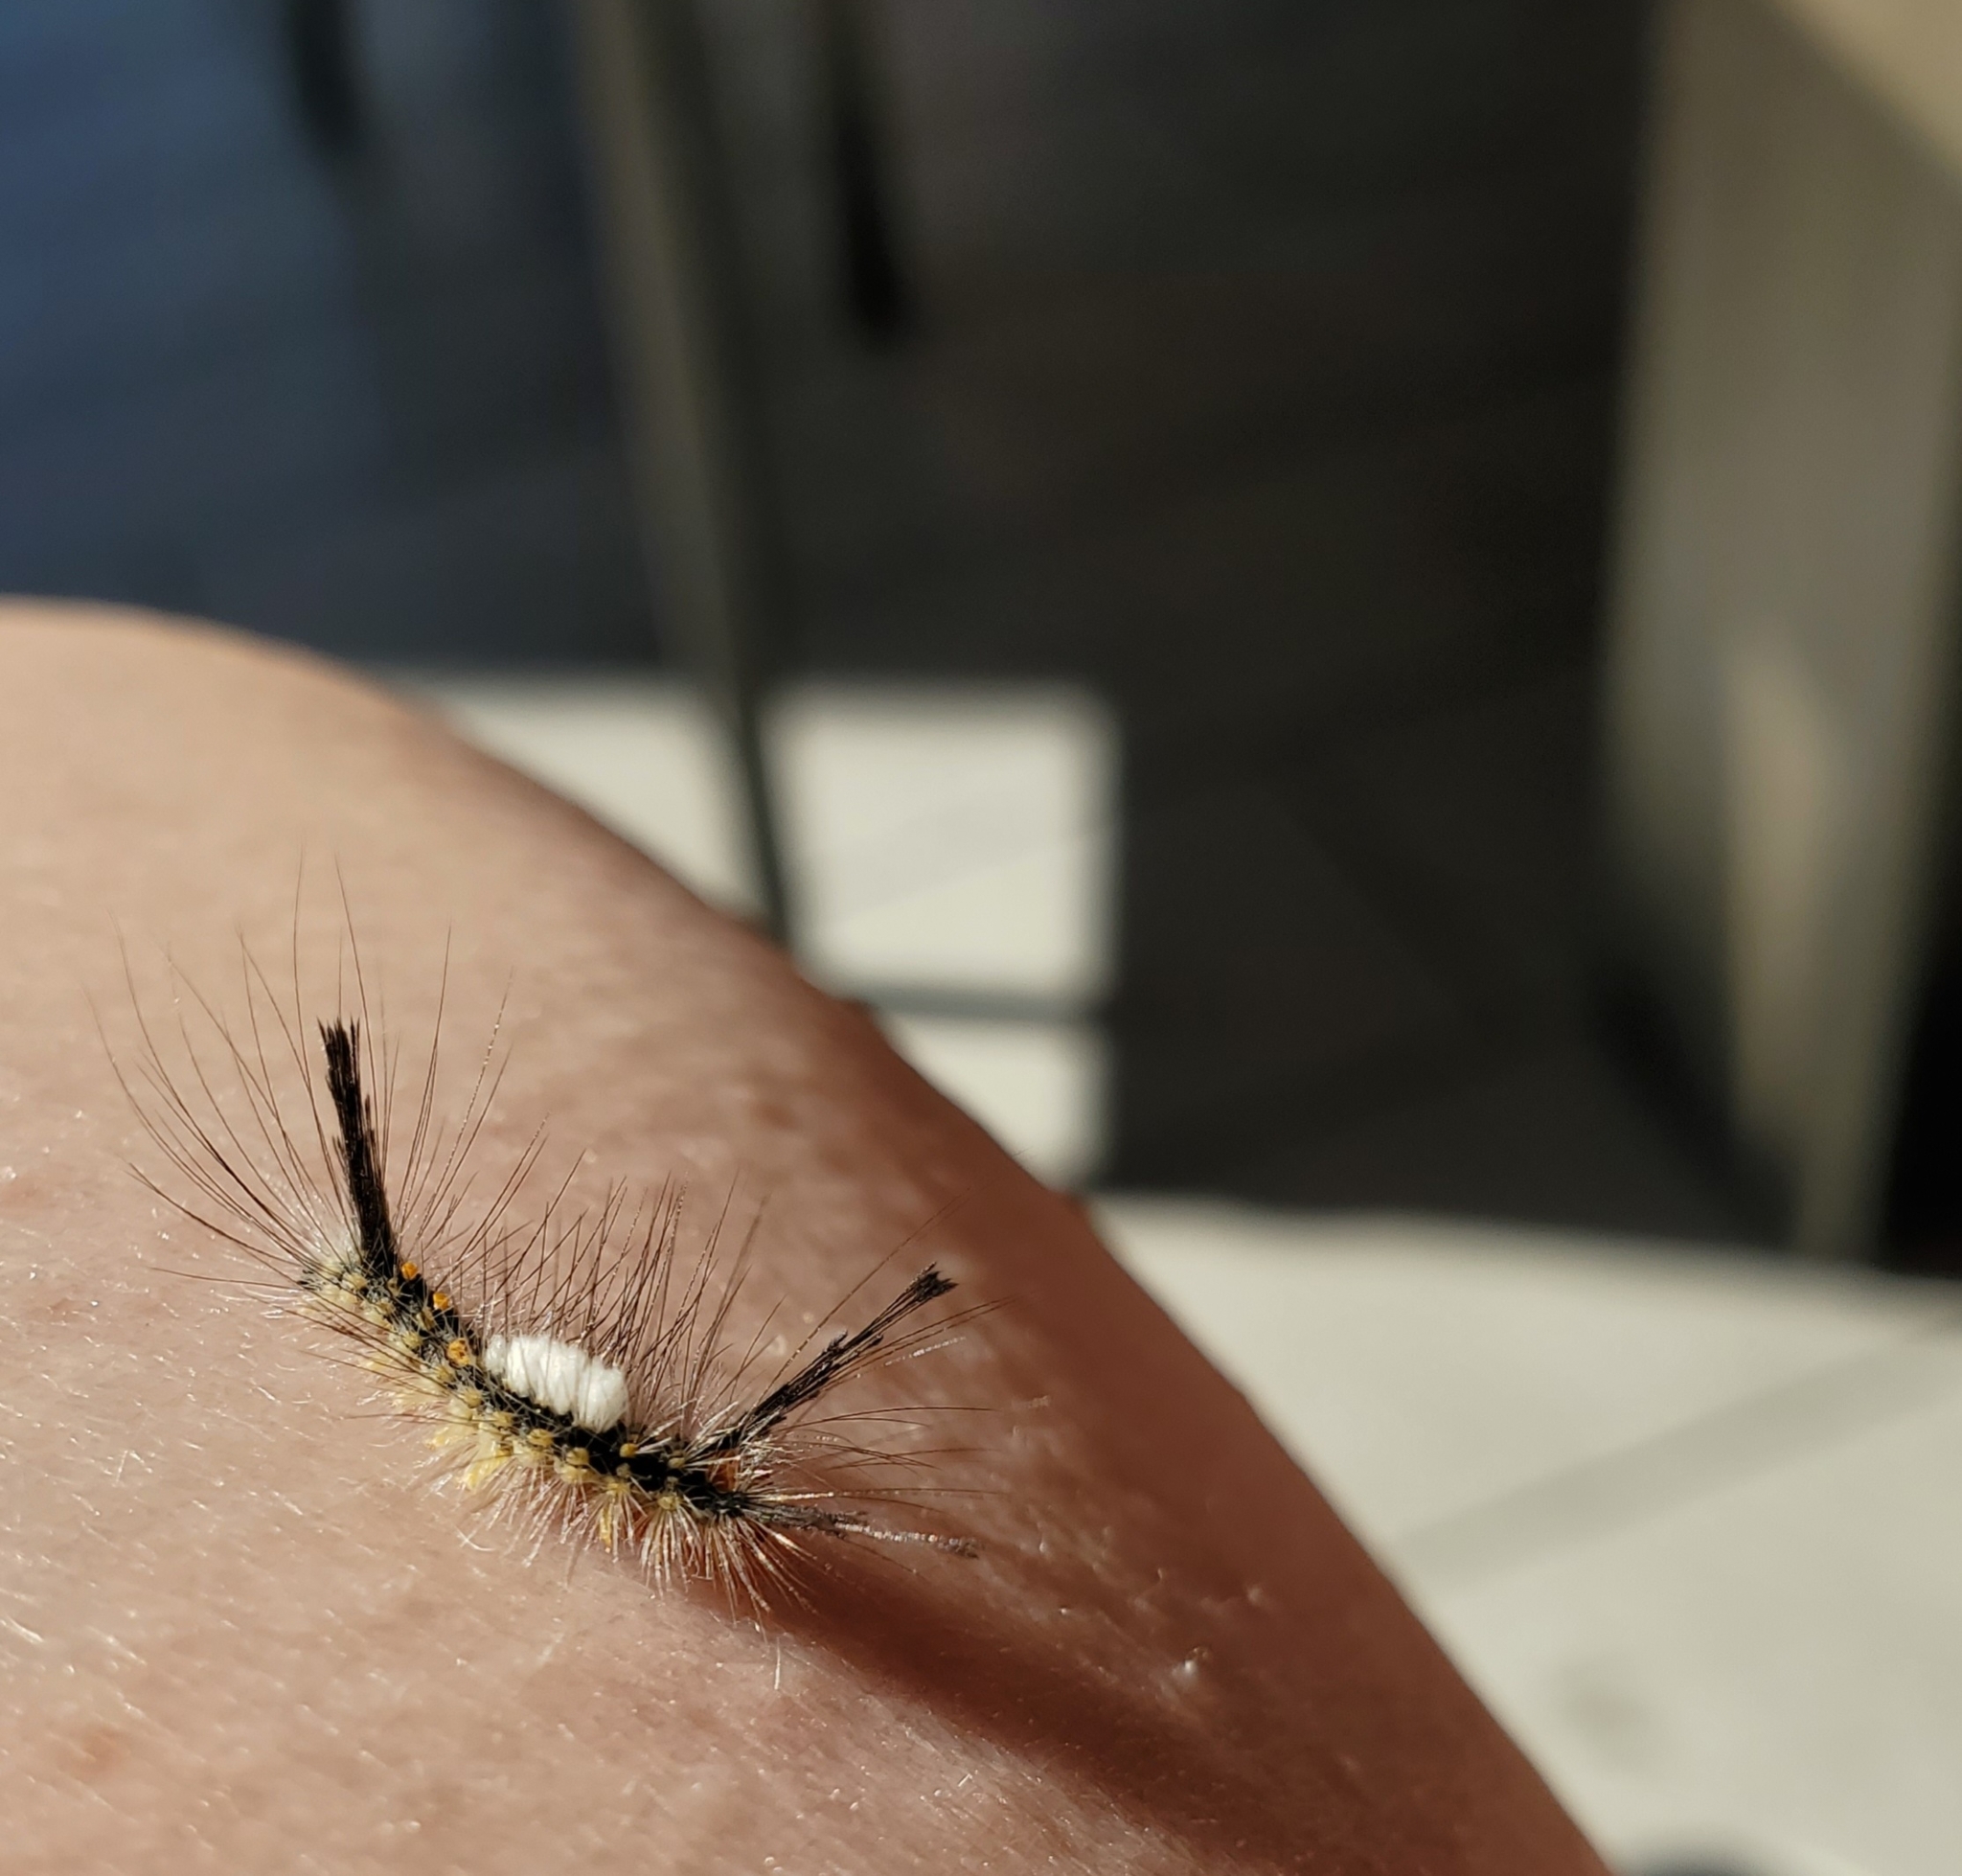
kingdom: Animalia
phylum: Arthropoda
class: Insecta
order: Lepidoptera
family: Erebidae
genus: Orgyia
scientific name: Orgyia detrita
